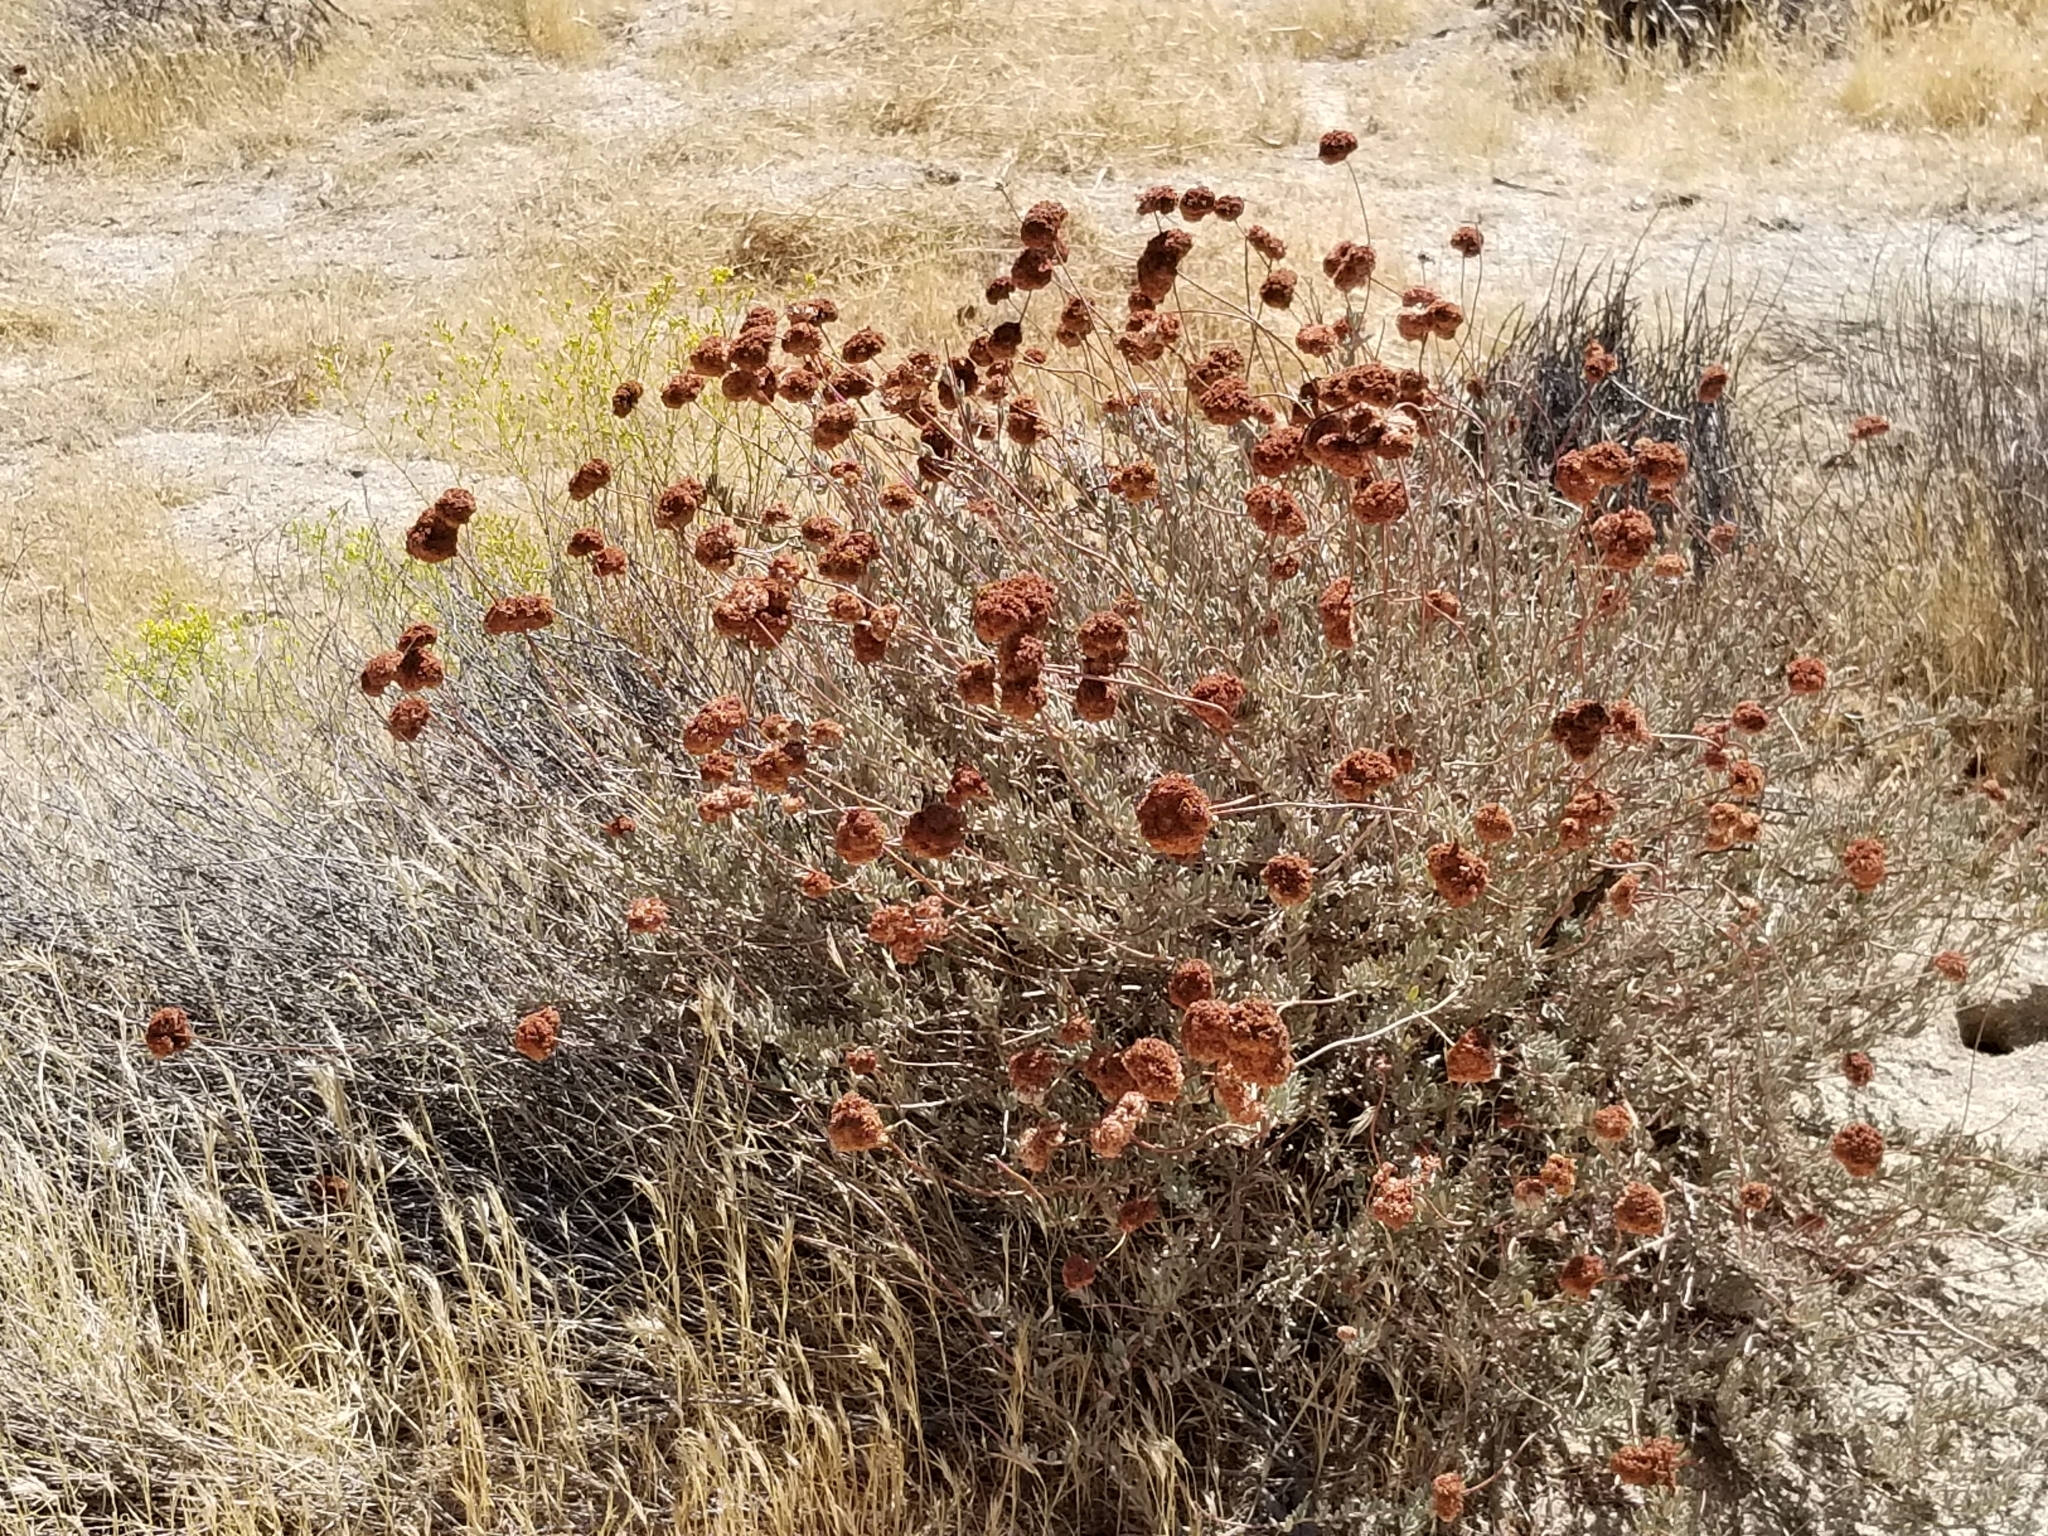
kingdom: Plantae
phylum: Tracheophyta
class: Magnoliopsida
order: Caryophyllales
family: Polygonaceae
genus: Eriogonum
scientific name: Eriogonum fasciculatum
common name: California wild buckwheat
